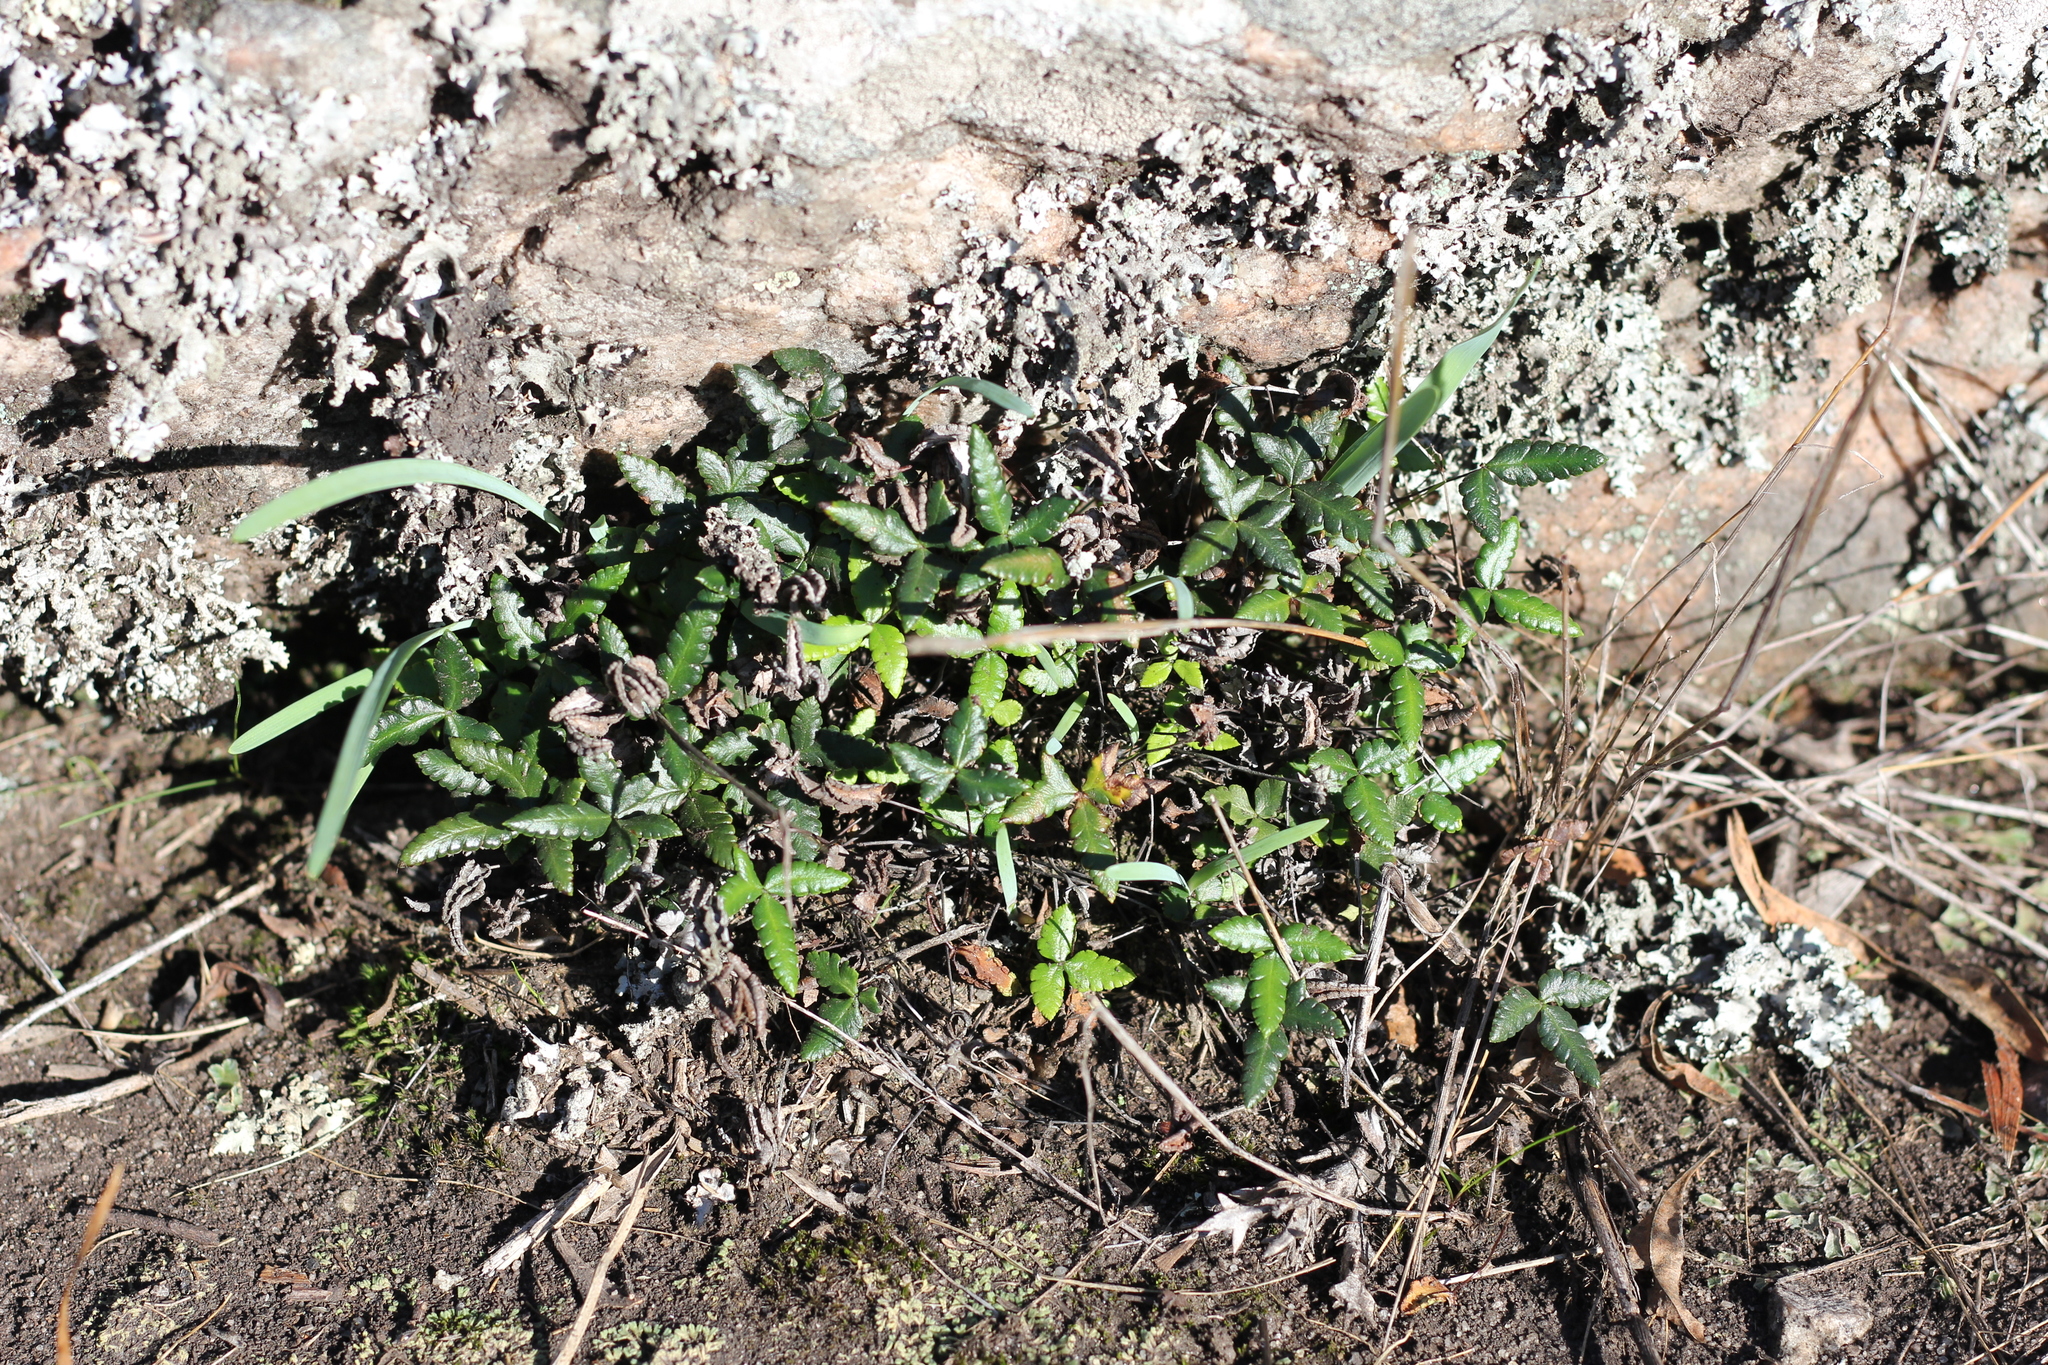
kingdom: Plantae
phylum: Tracheophyta
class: Polypodiopsida
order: Polypodiales
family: Pteridaceae
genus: Doryopteris
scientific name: Doryopteris triphylla
